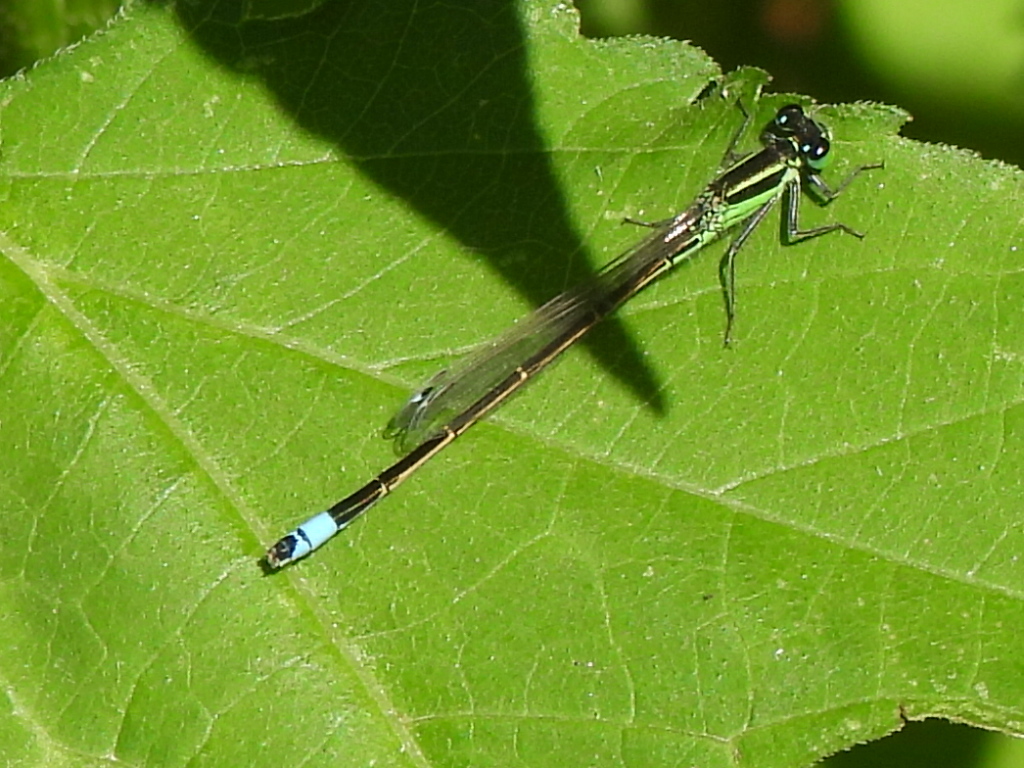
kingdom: Animalia
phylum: Arthropoda
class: Insecta
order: Odonata
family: Coenagrionidae
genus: Ischnura
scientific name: Ischnura ramburii
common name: Rambur's forktail
